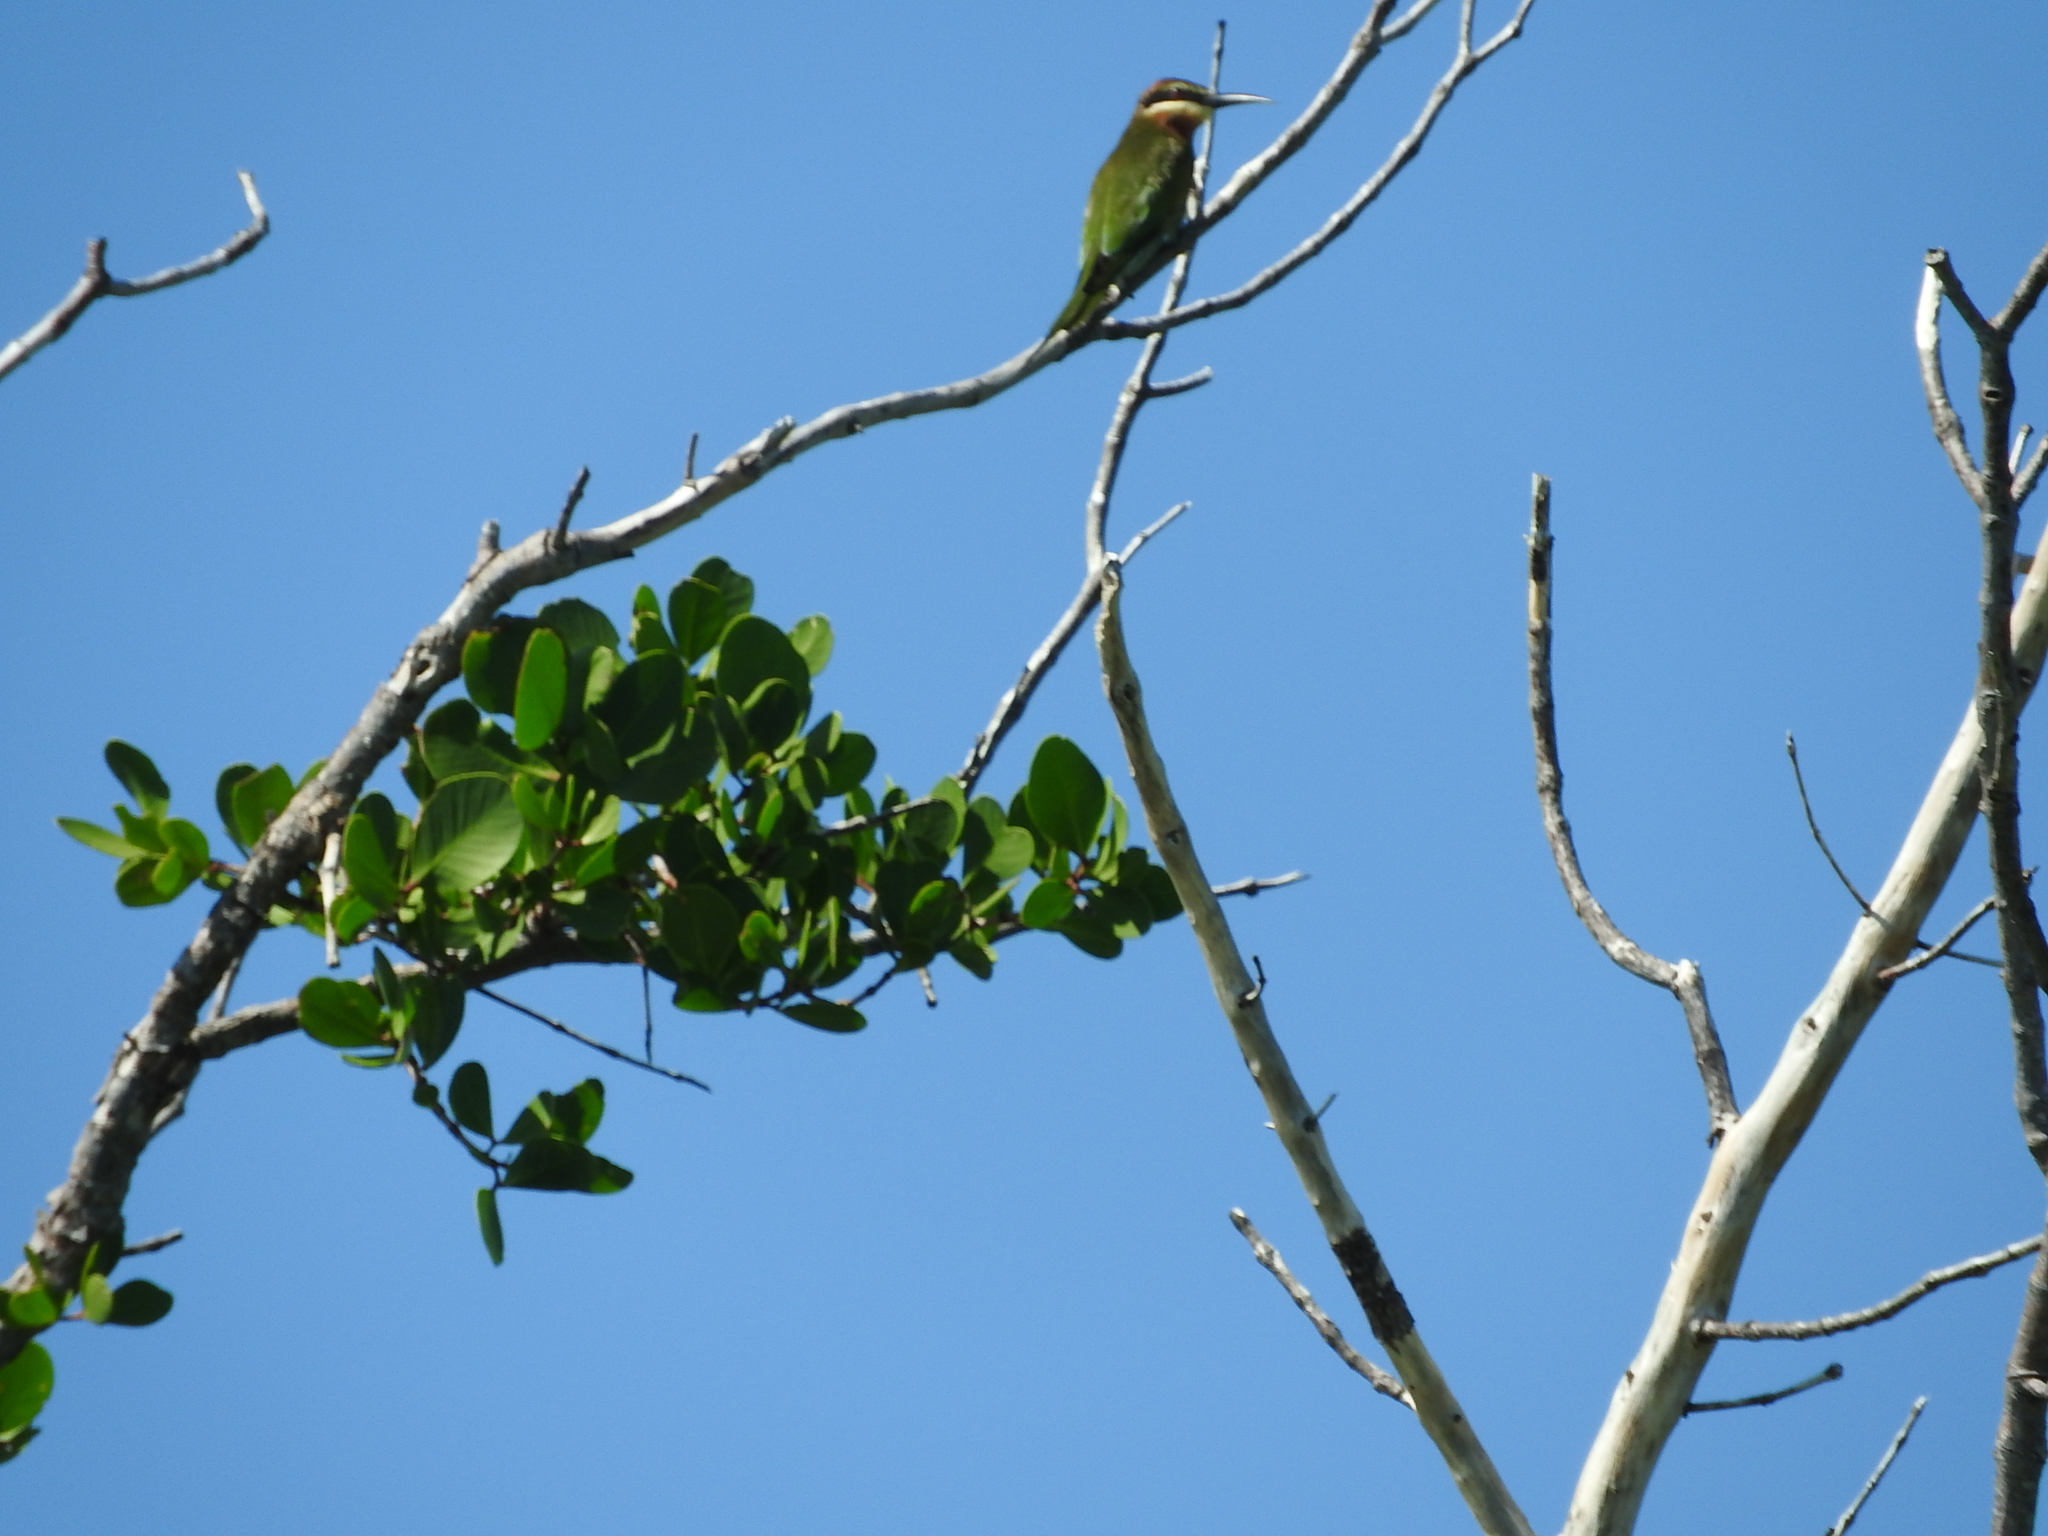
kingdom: Animalia
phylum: Chordata
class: Aves
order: Coraciiformes
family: Meropidae
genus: Merops
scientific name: Merops superciliosus
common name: Olive bee-eater
